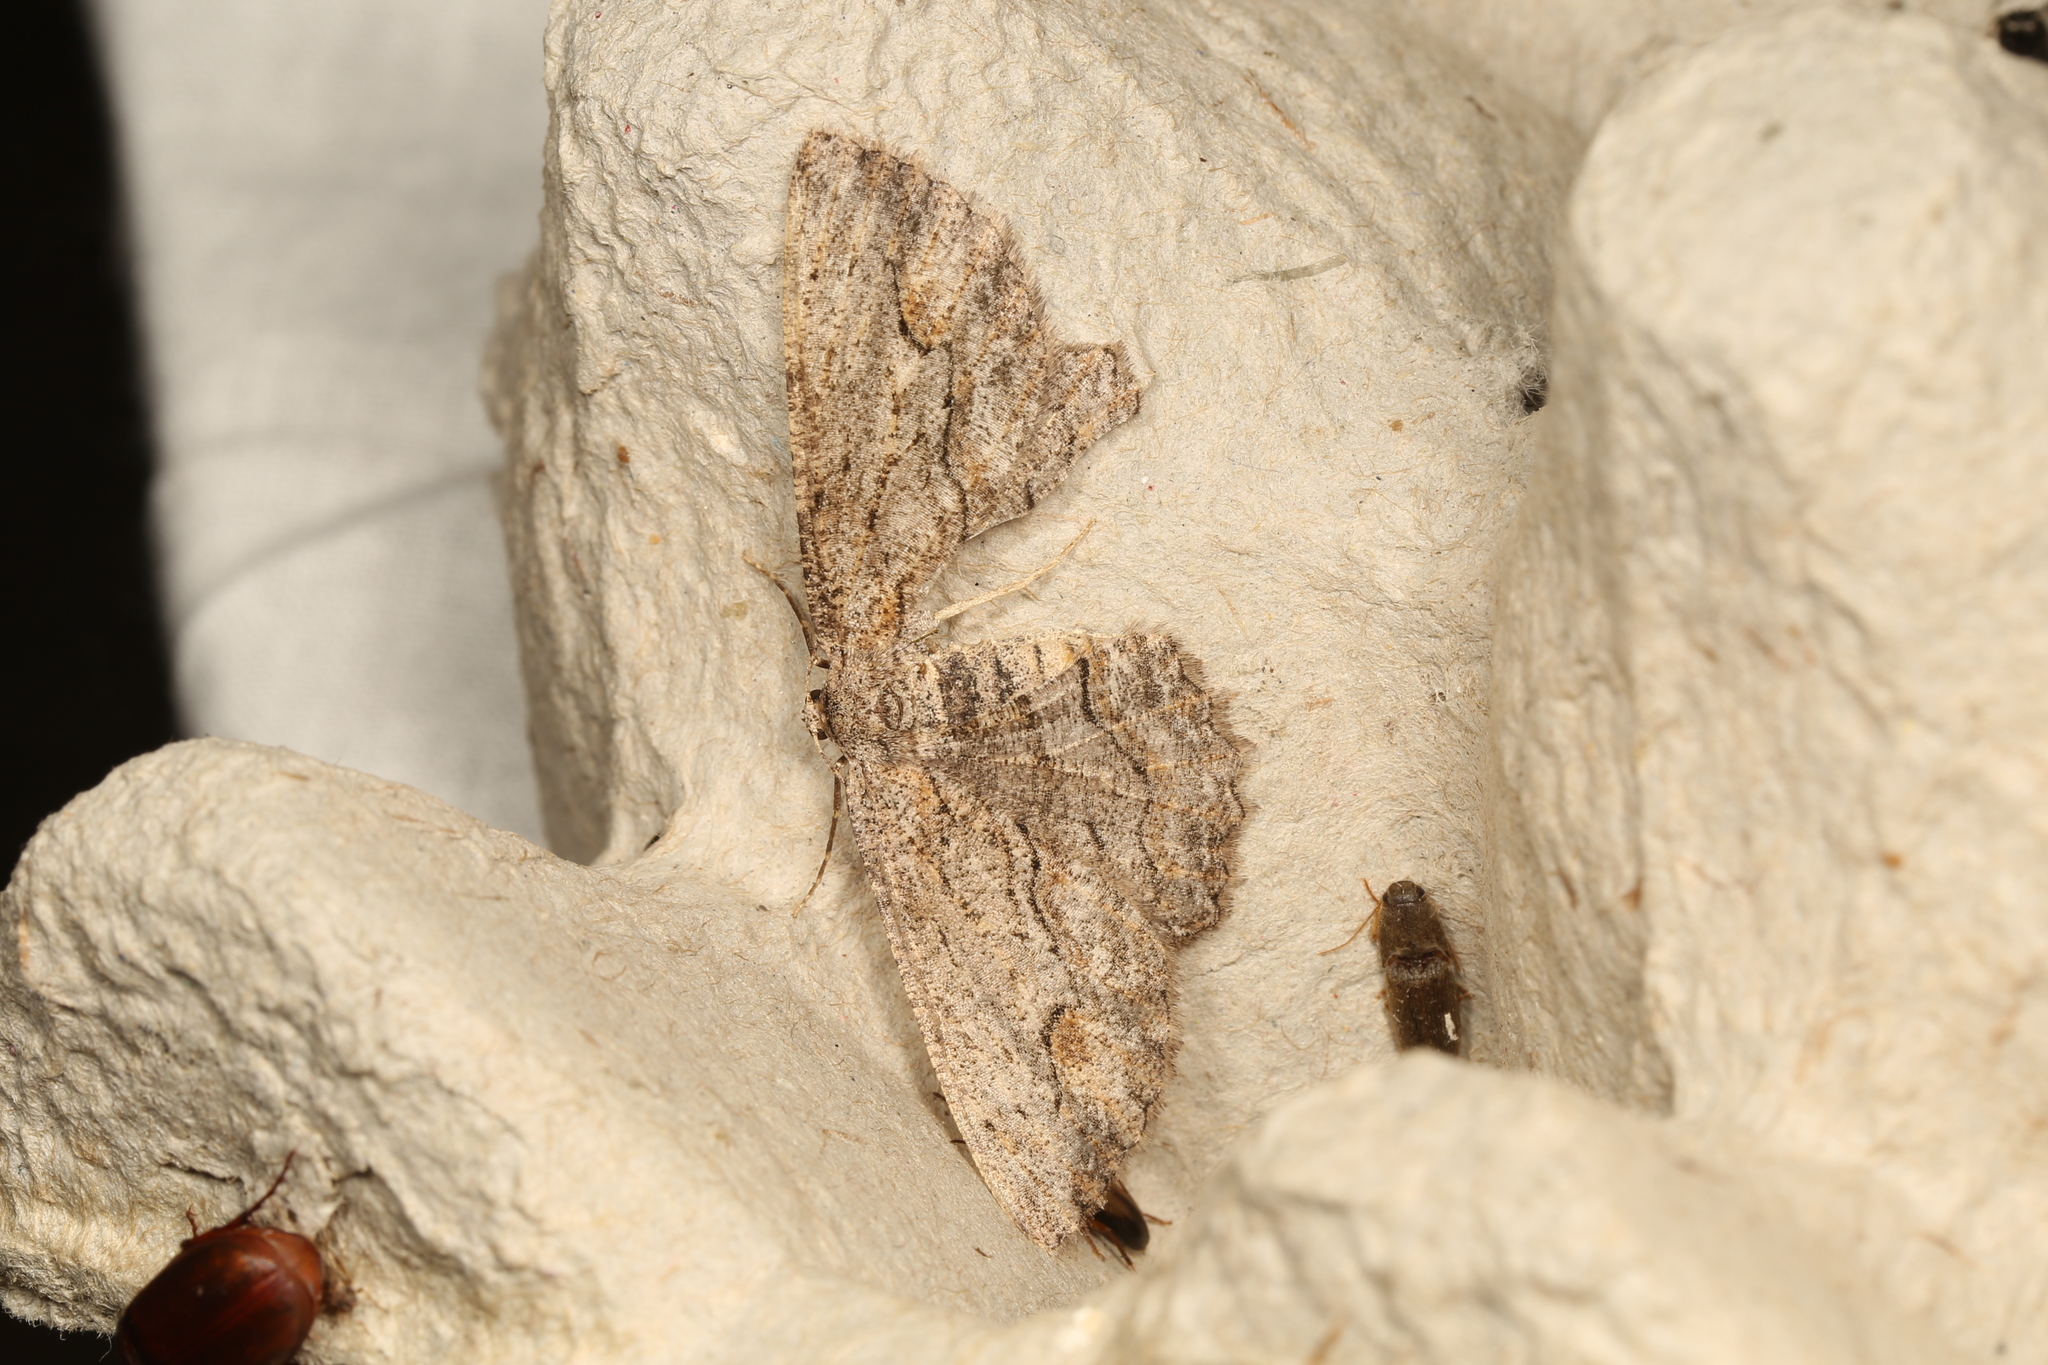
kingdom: Animalia
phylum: Arthropoda
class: Insecta
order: Lepidoptera
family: Geometridae
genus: Ectropis
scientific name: Ectropis excursaria
